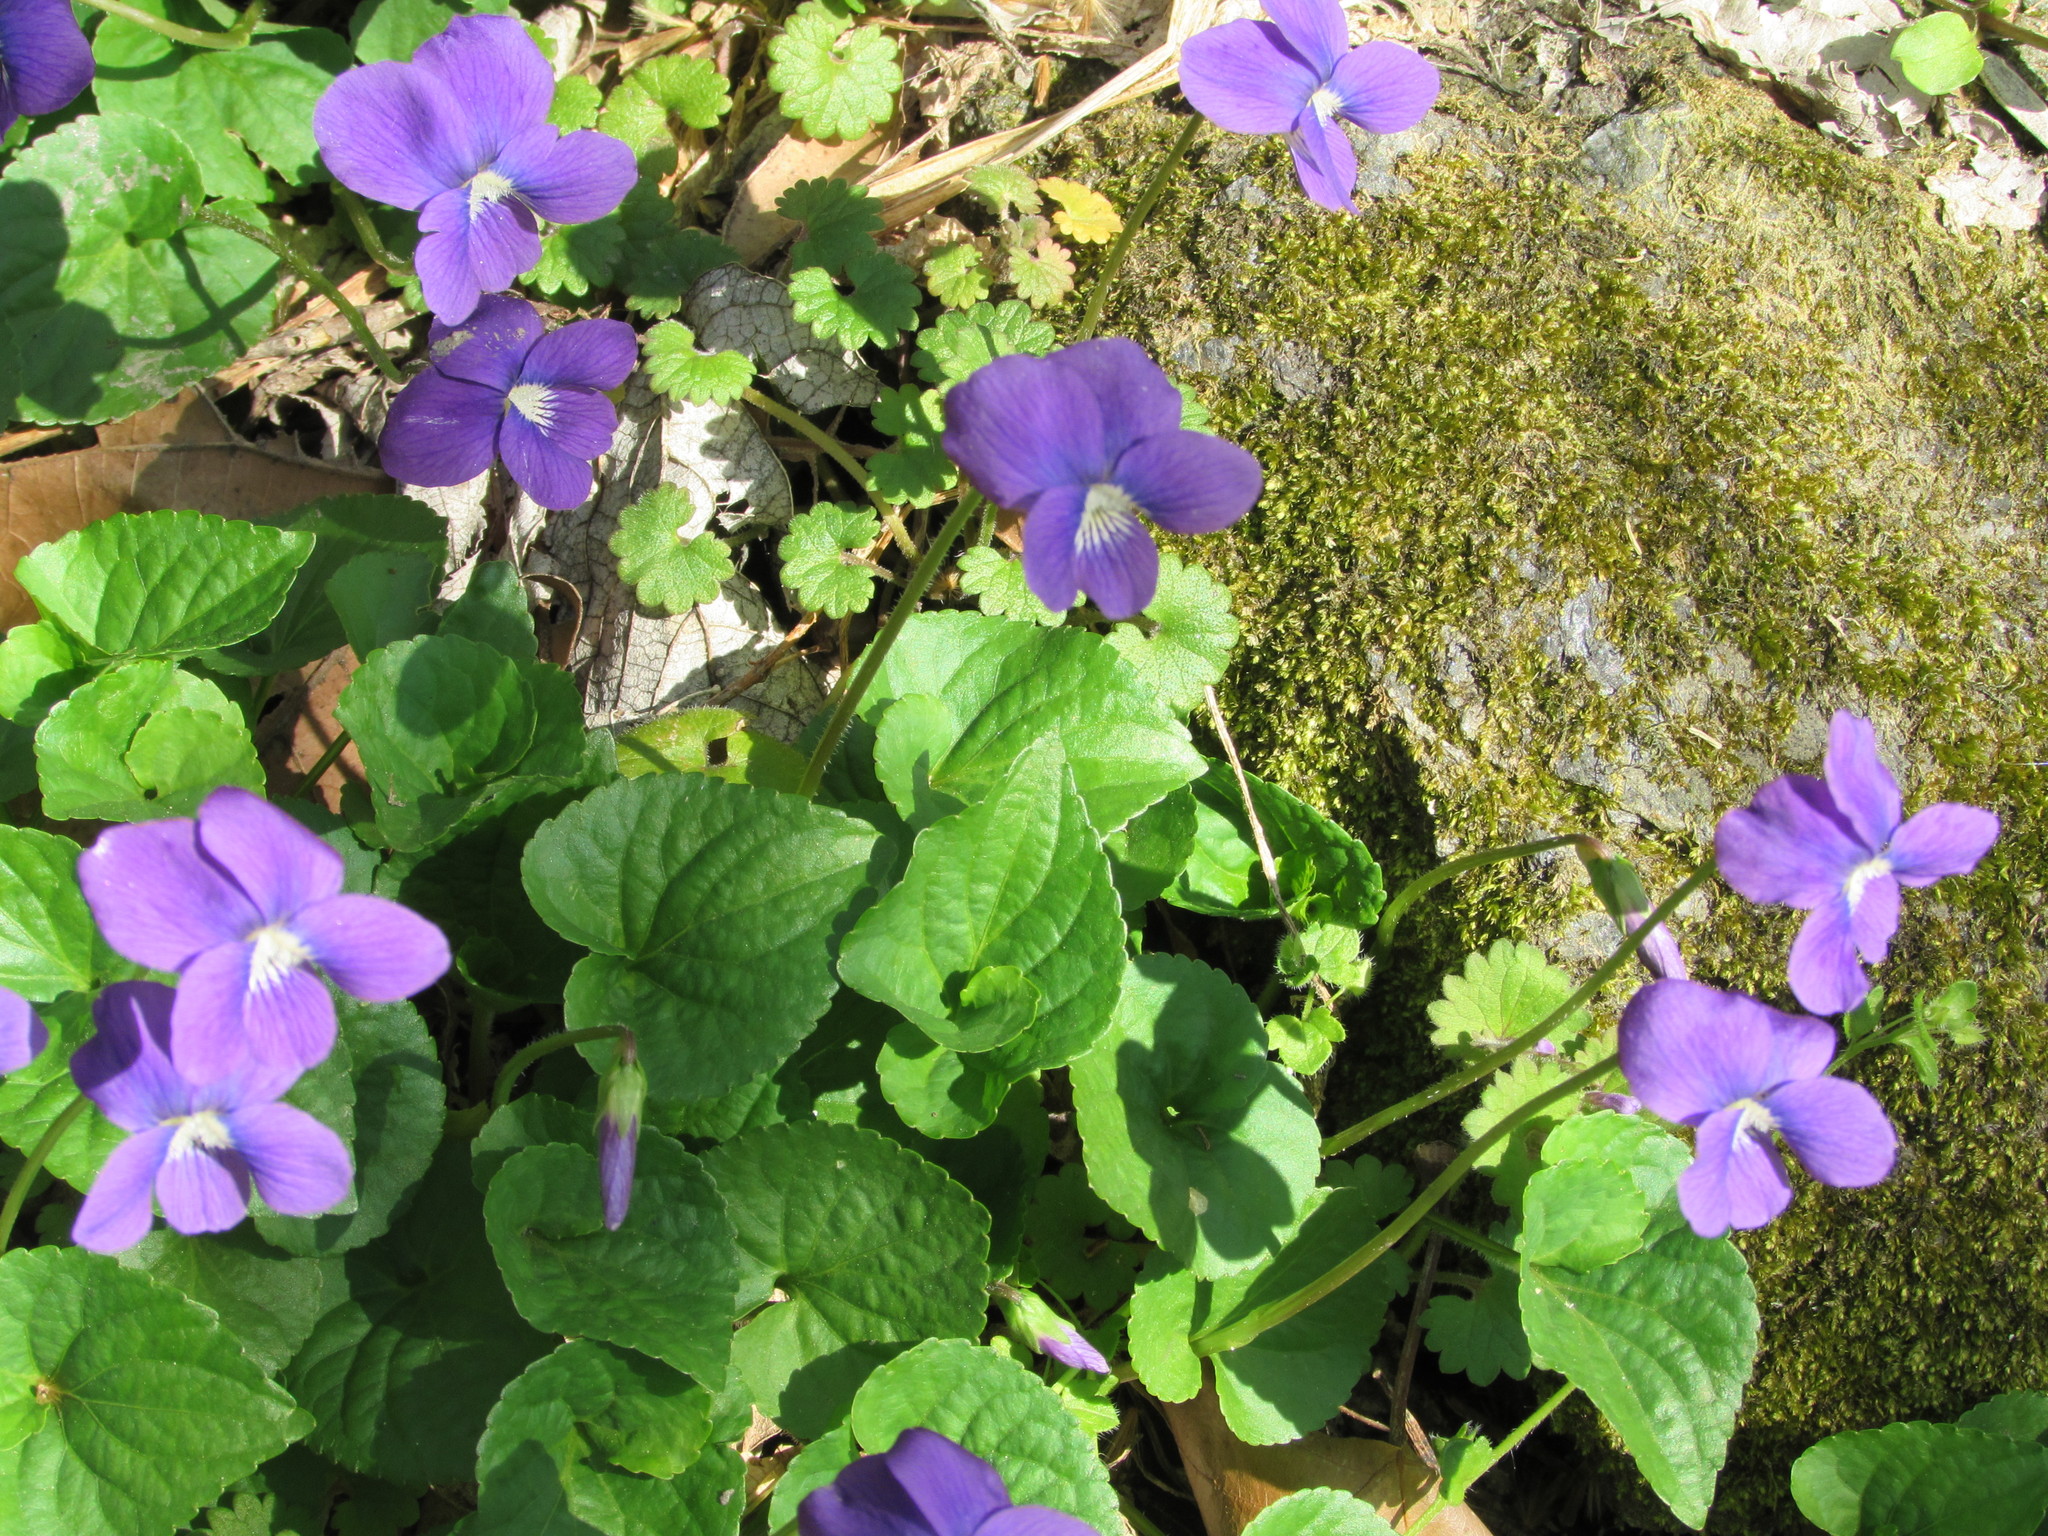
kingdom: Plantae
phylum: Tracheophyta
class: Magnoliopsida
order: Malpighiales
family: Violaceae
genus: Viola
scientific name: Viola sororia
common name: Dooryard violet
